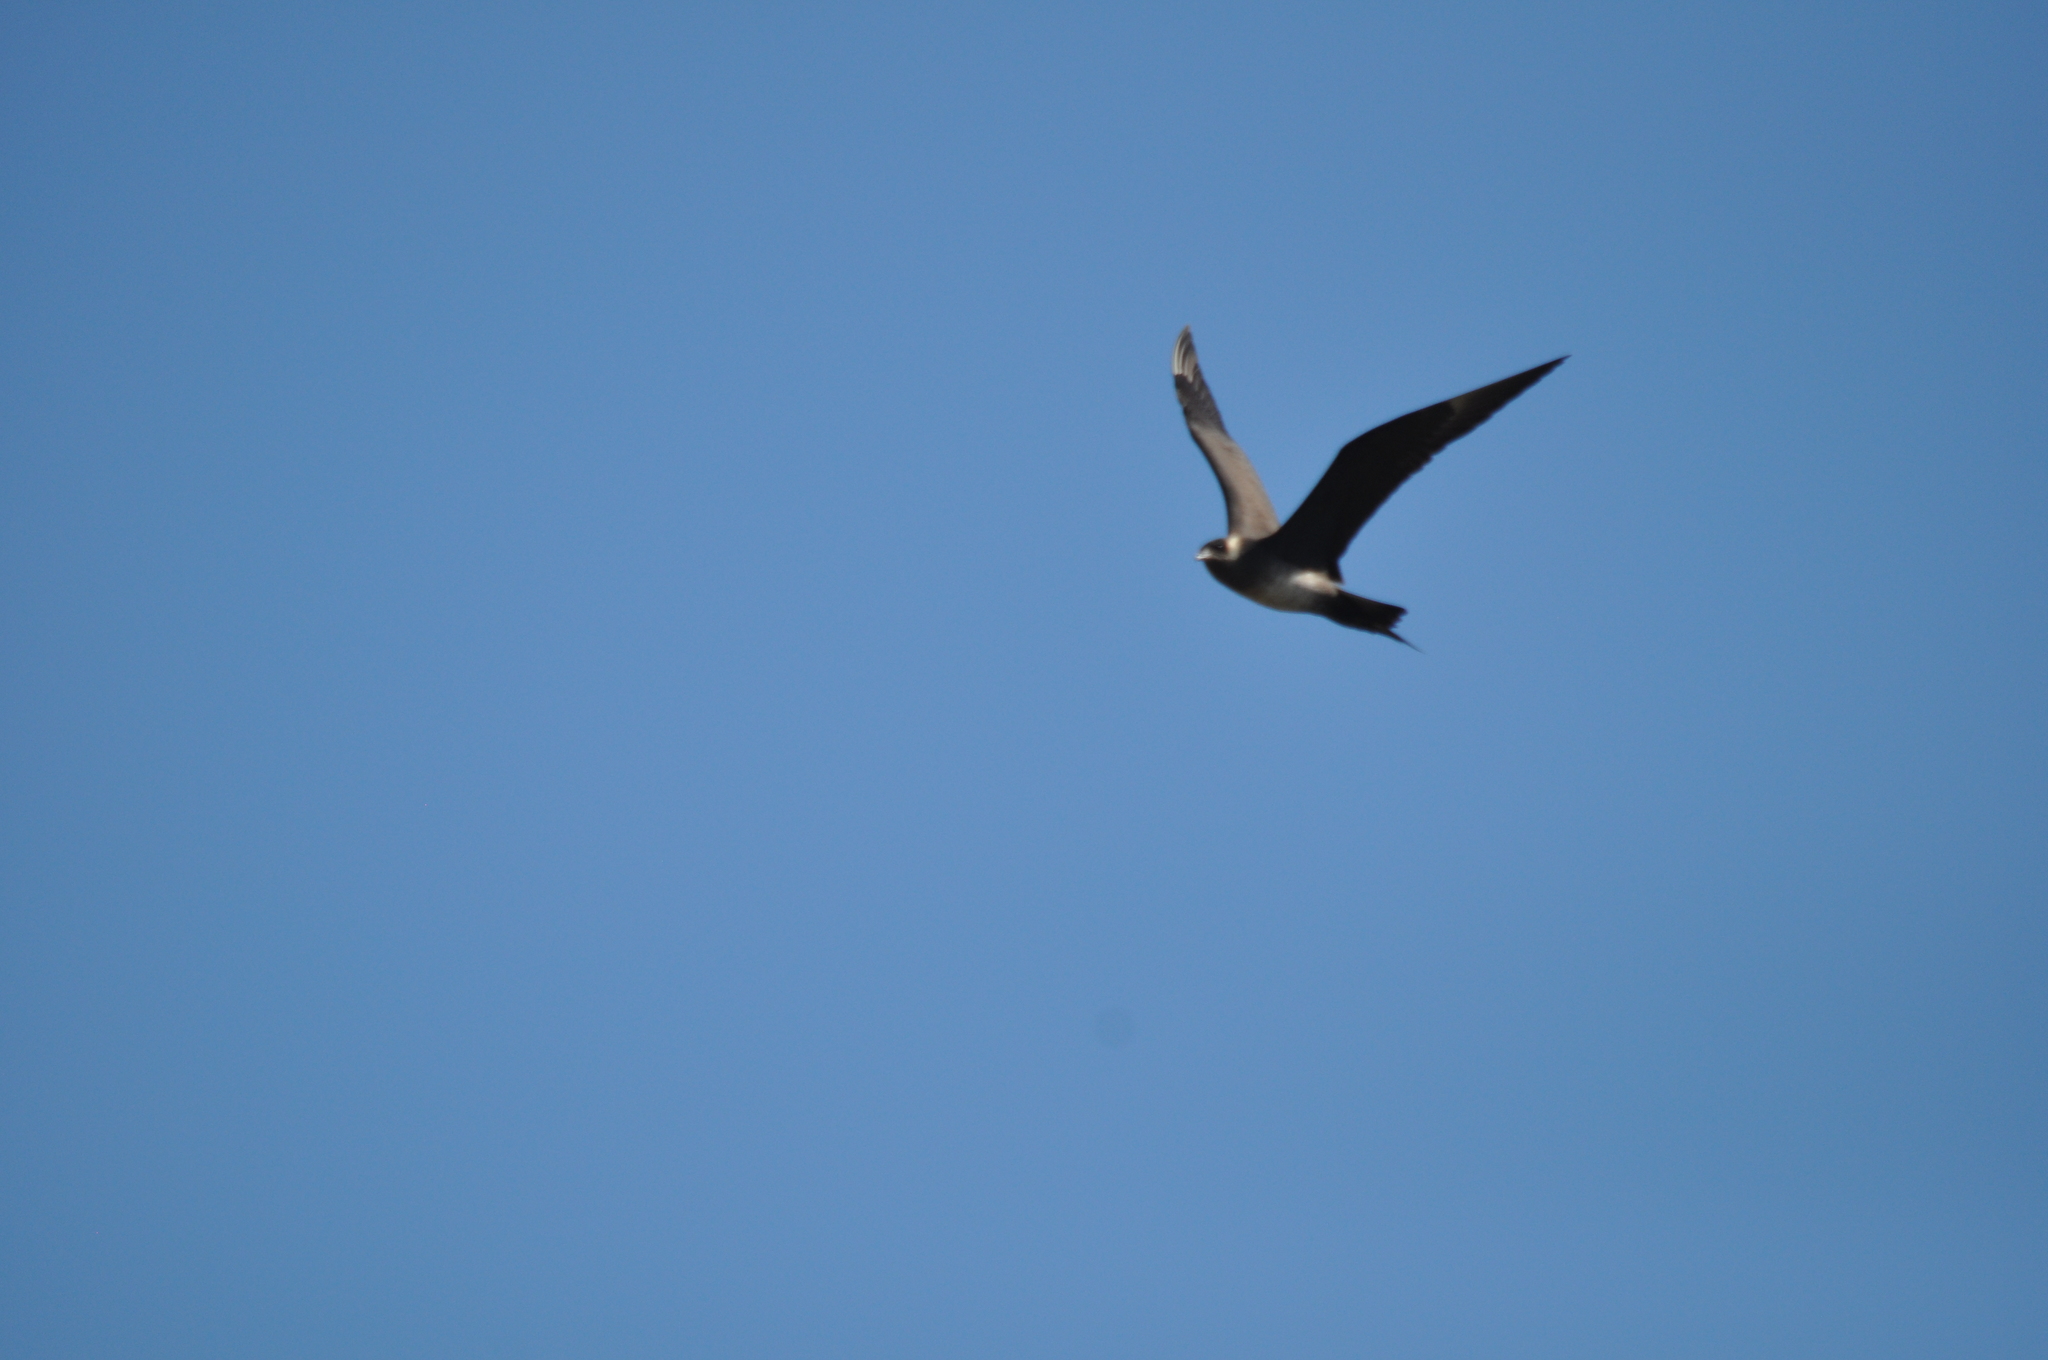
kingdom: Animalia
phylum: Chordata
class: Aves
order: Charadriiformes
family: Stercorariidae
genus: Stercorarius
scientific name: Stercorarius parasiticus
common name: Parasitic jaeger
